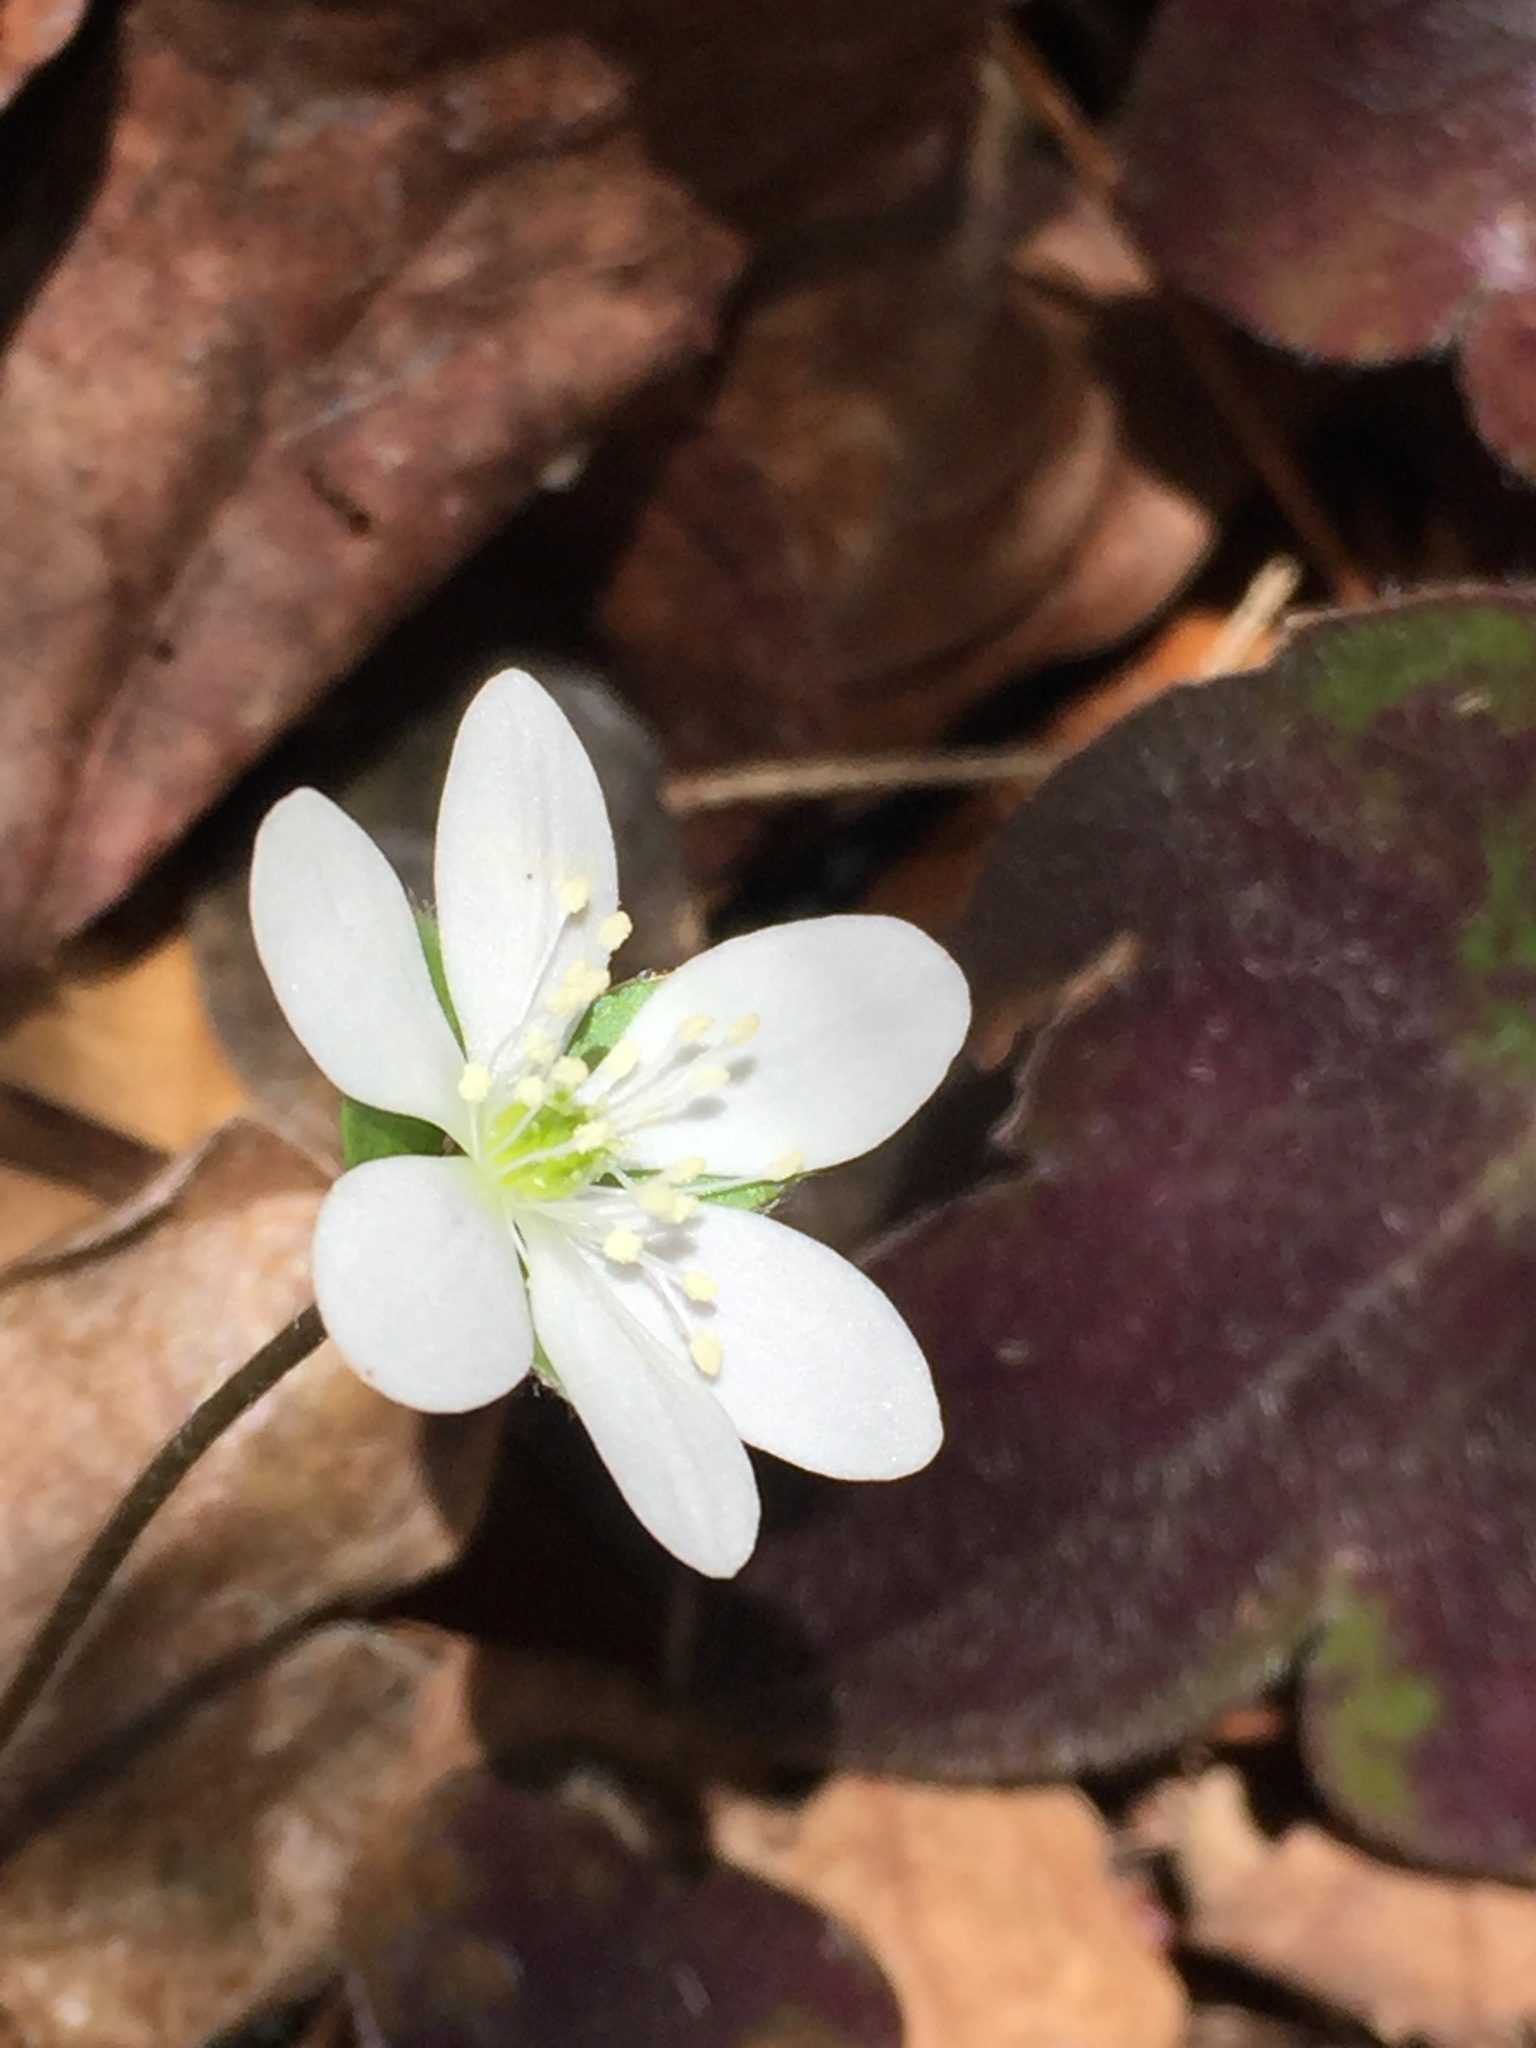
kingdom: Plantae
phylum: Tracheophyta
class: Magnoliopsida
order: Ranunculales
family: Ranunculaceae
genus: Hepatica
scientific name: Hepatica americana
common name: American hepatica
